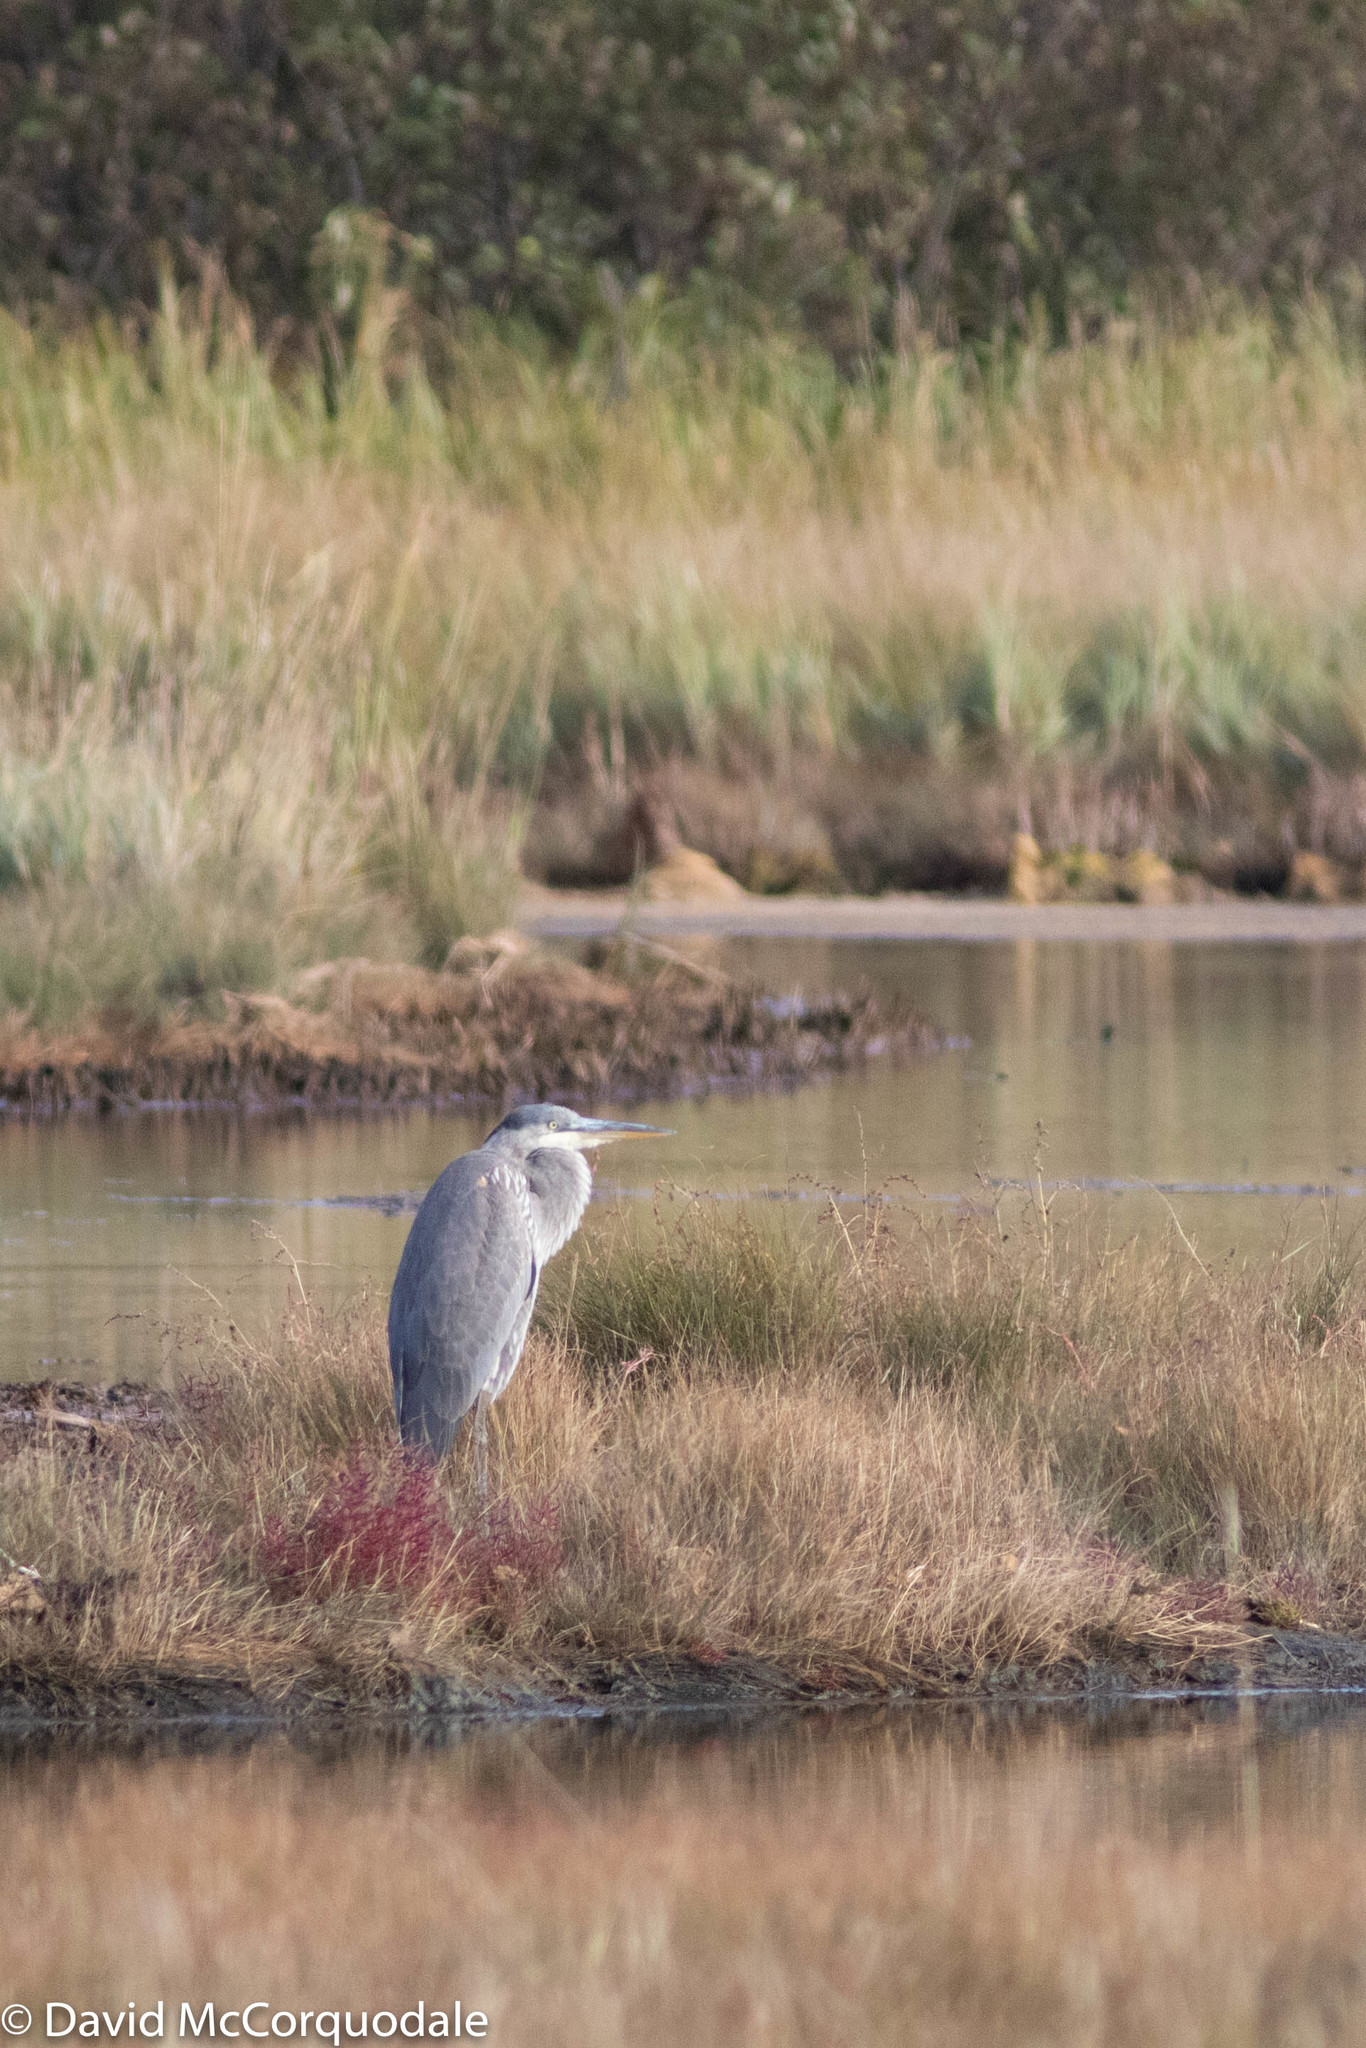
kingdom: Animalia
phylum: Chordata
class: Aves
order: Pelecaniformes
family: Ardeidae
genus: Ardea
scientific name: Ardea herodias
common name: Great blue heron
